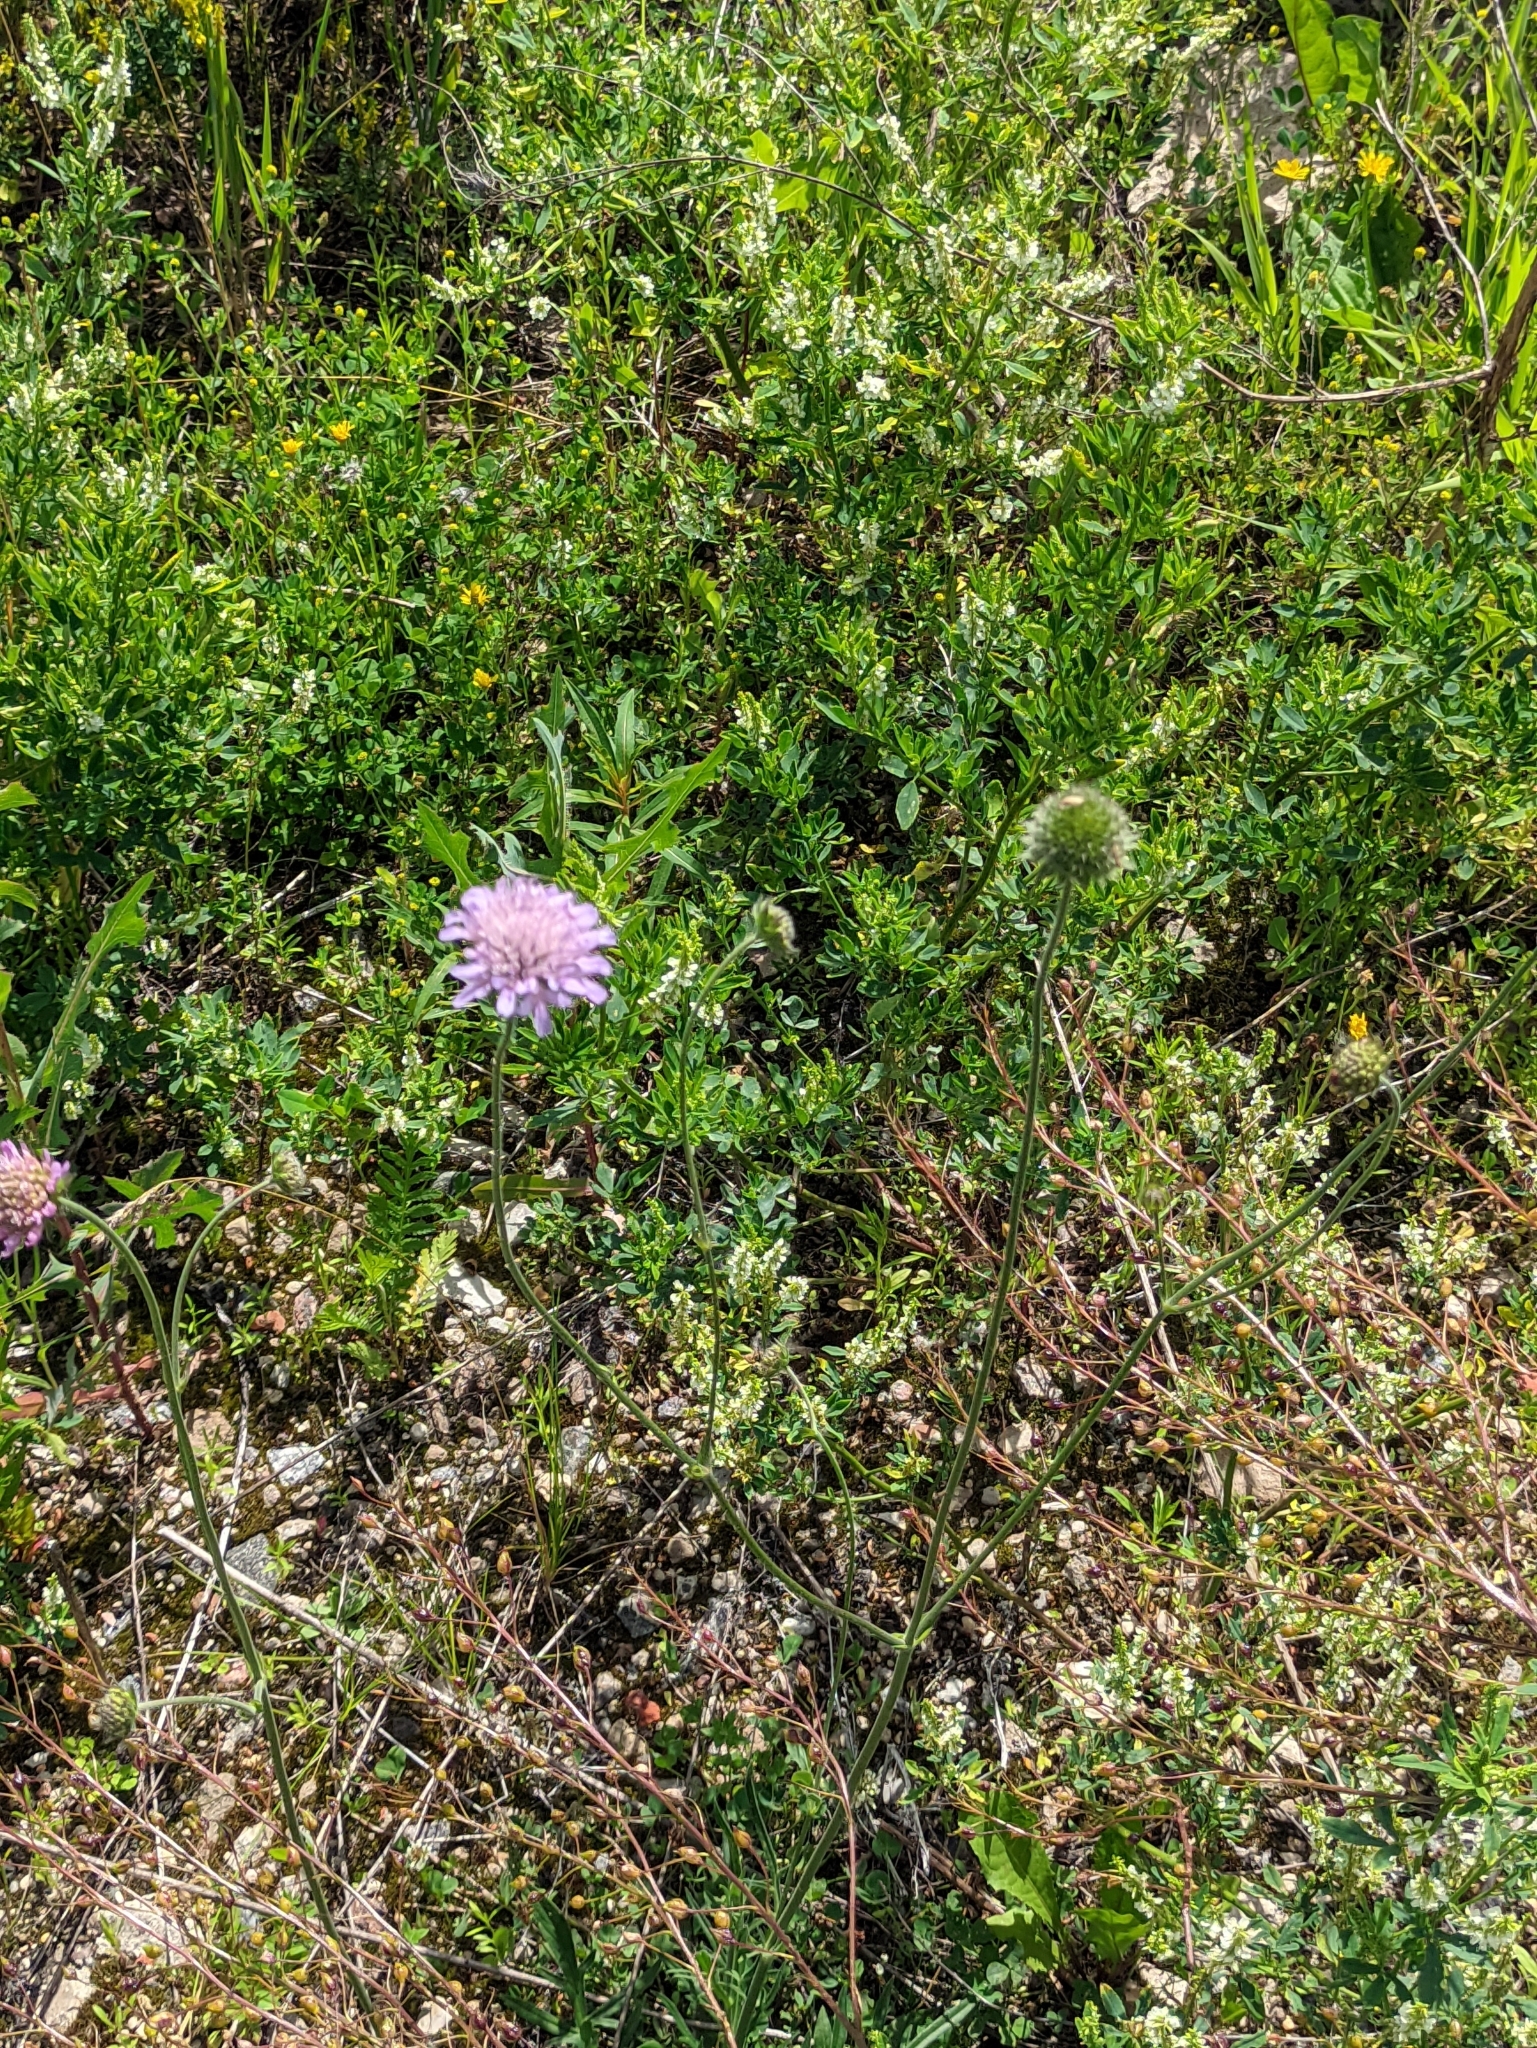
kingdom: Plantae
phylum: Tracheophyta
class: Magnoliopsida
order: Dipsacales
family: Caprifoliaceae
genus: Knautia
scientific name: Knautia arvensis
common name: Field scabiosa
